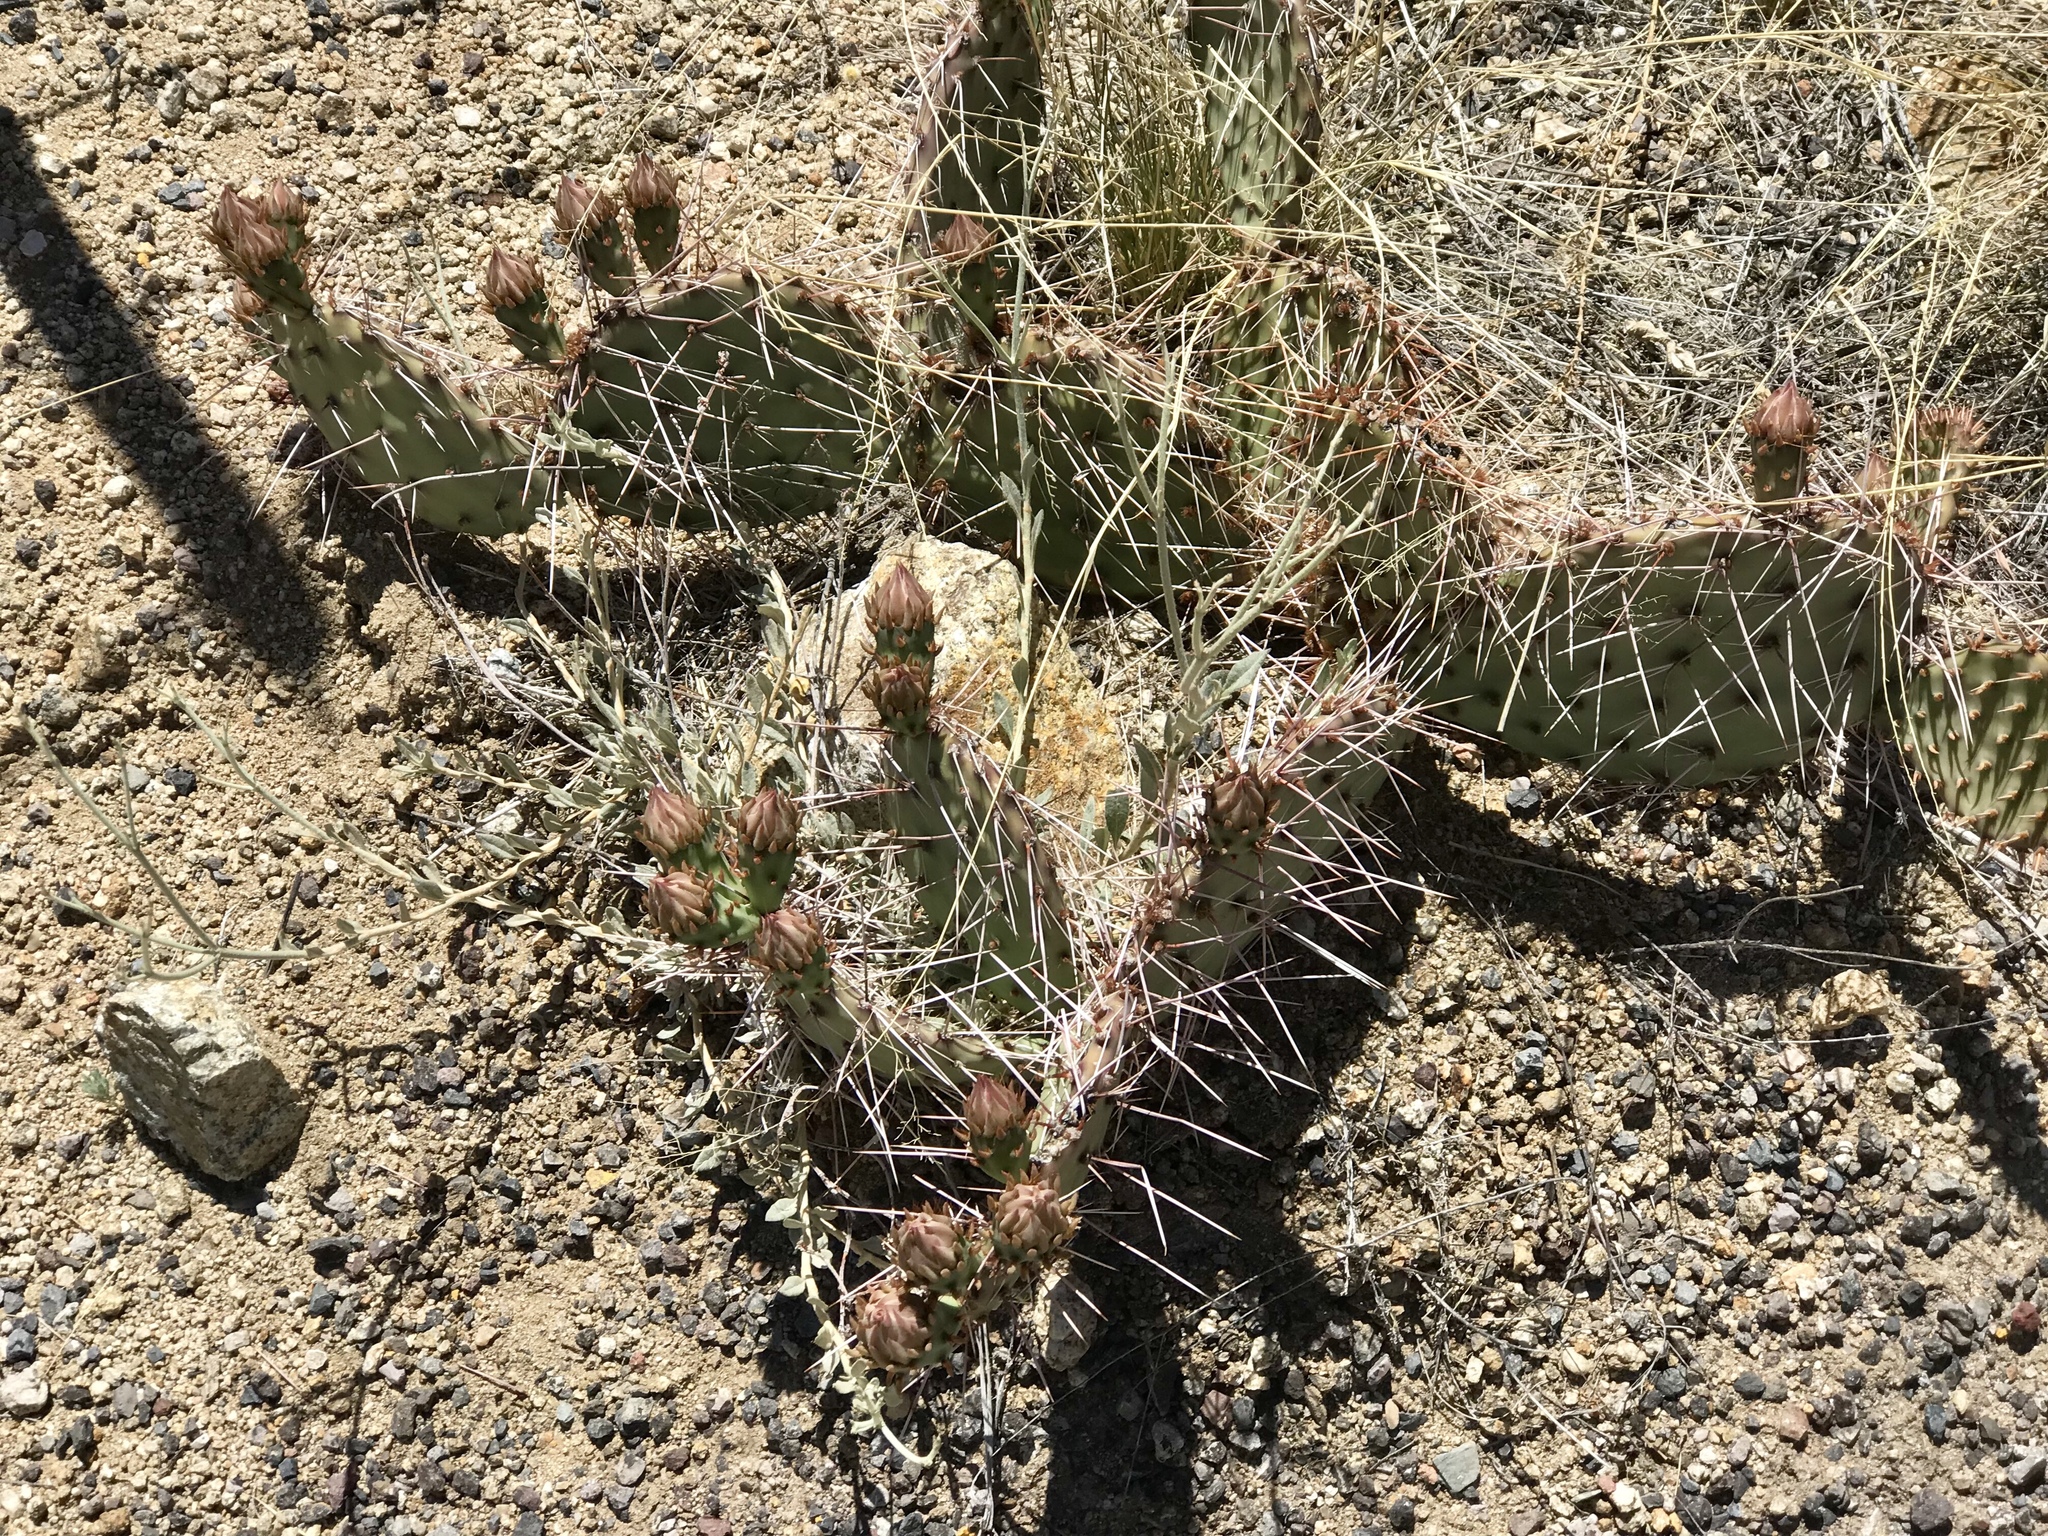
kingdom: Plantae
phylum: Tracheophyta
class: Magnoliopsida
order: Caryophyllales
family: Cactaceae
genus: Opuntia
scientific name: Opuntia phaeacantha
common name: New mexico prickly-pear
